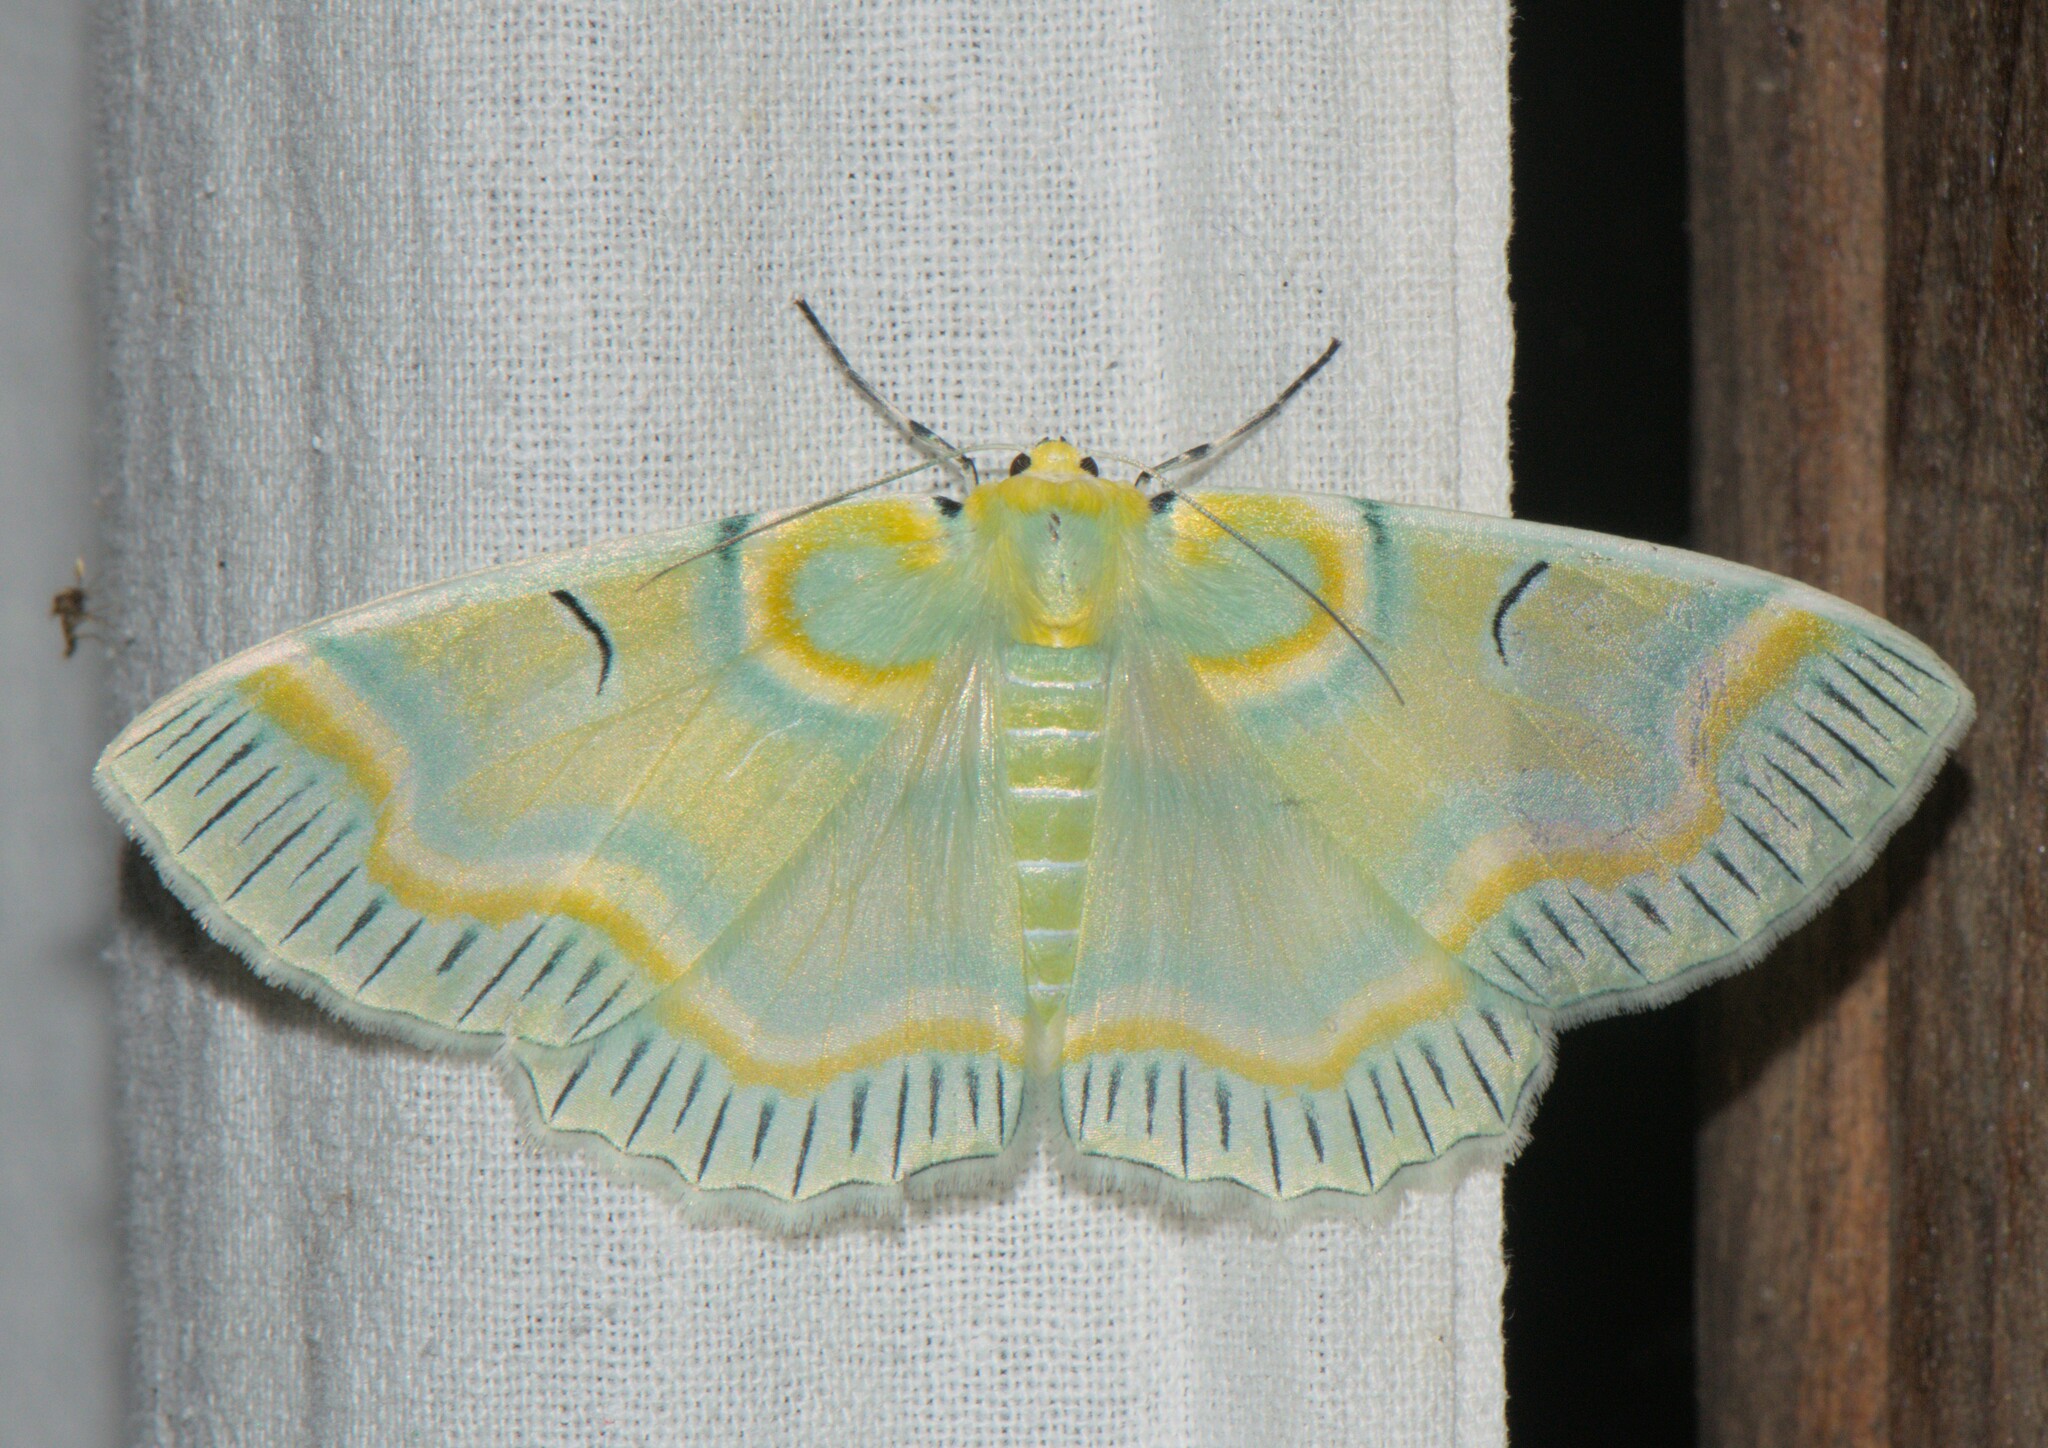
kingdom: Animalia
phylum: Arthropoda
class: Insecta
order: Lepidoptera
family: Geometridae
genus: Iotaphora
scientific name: Iotaphora iridicolor
